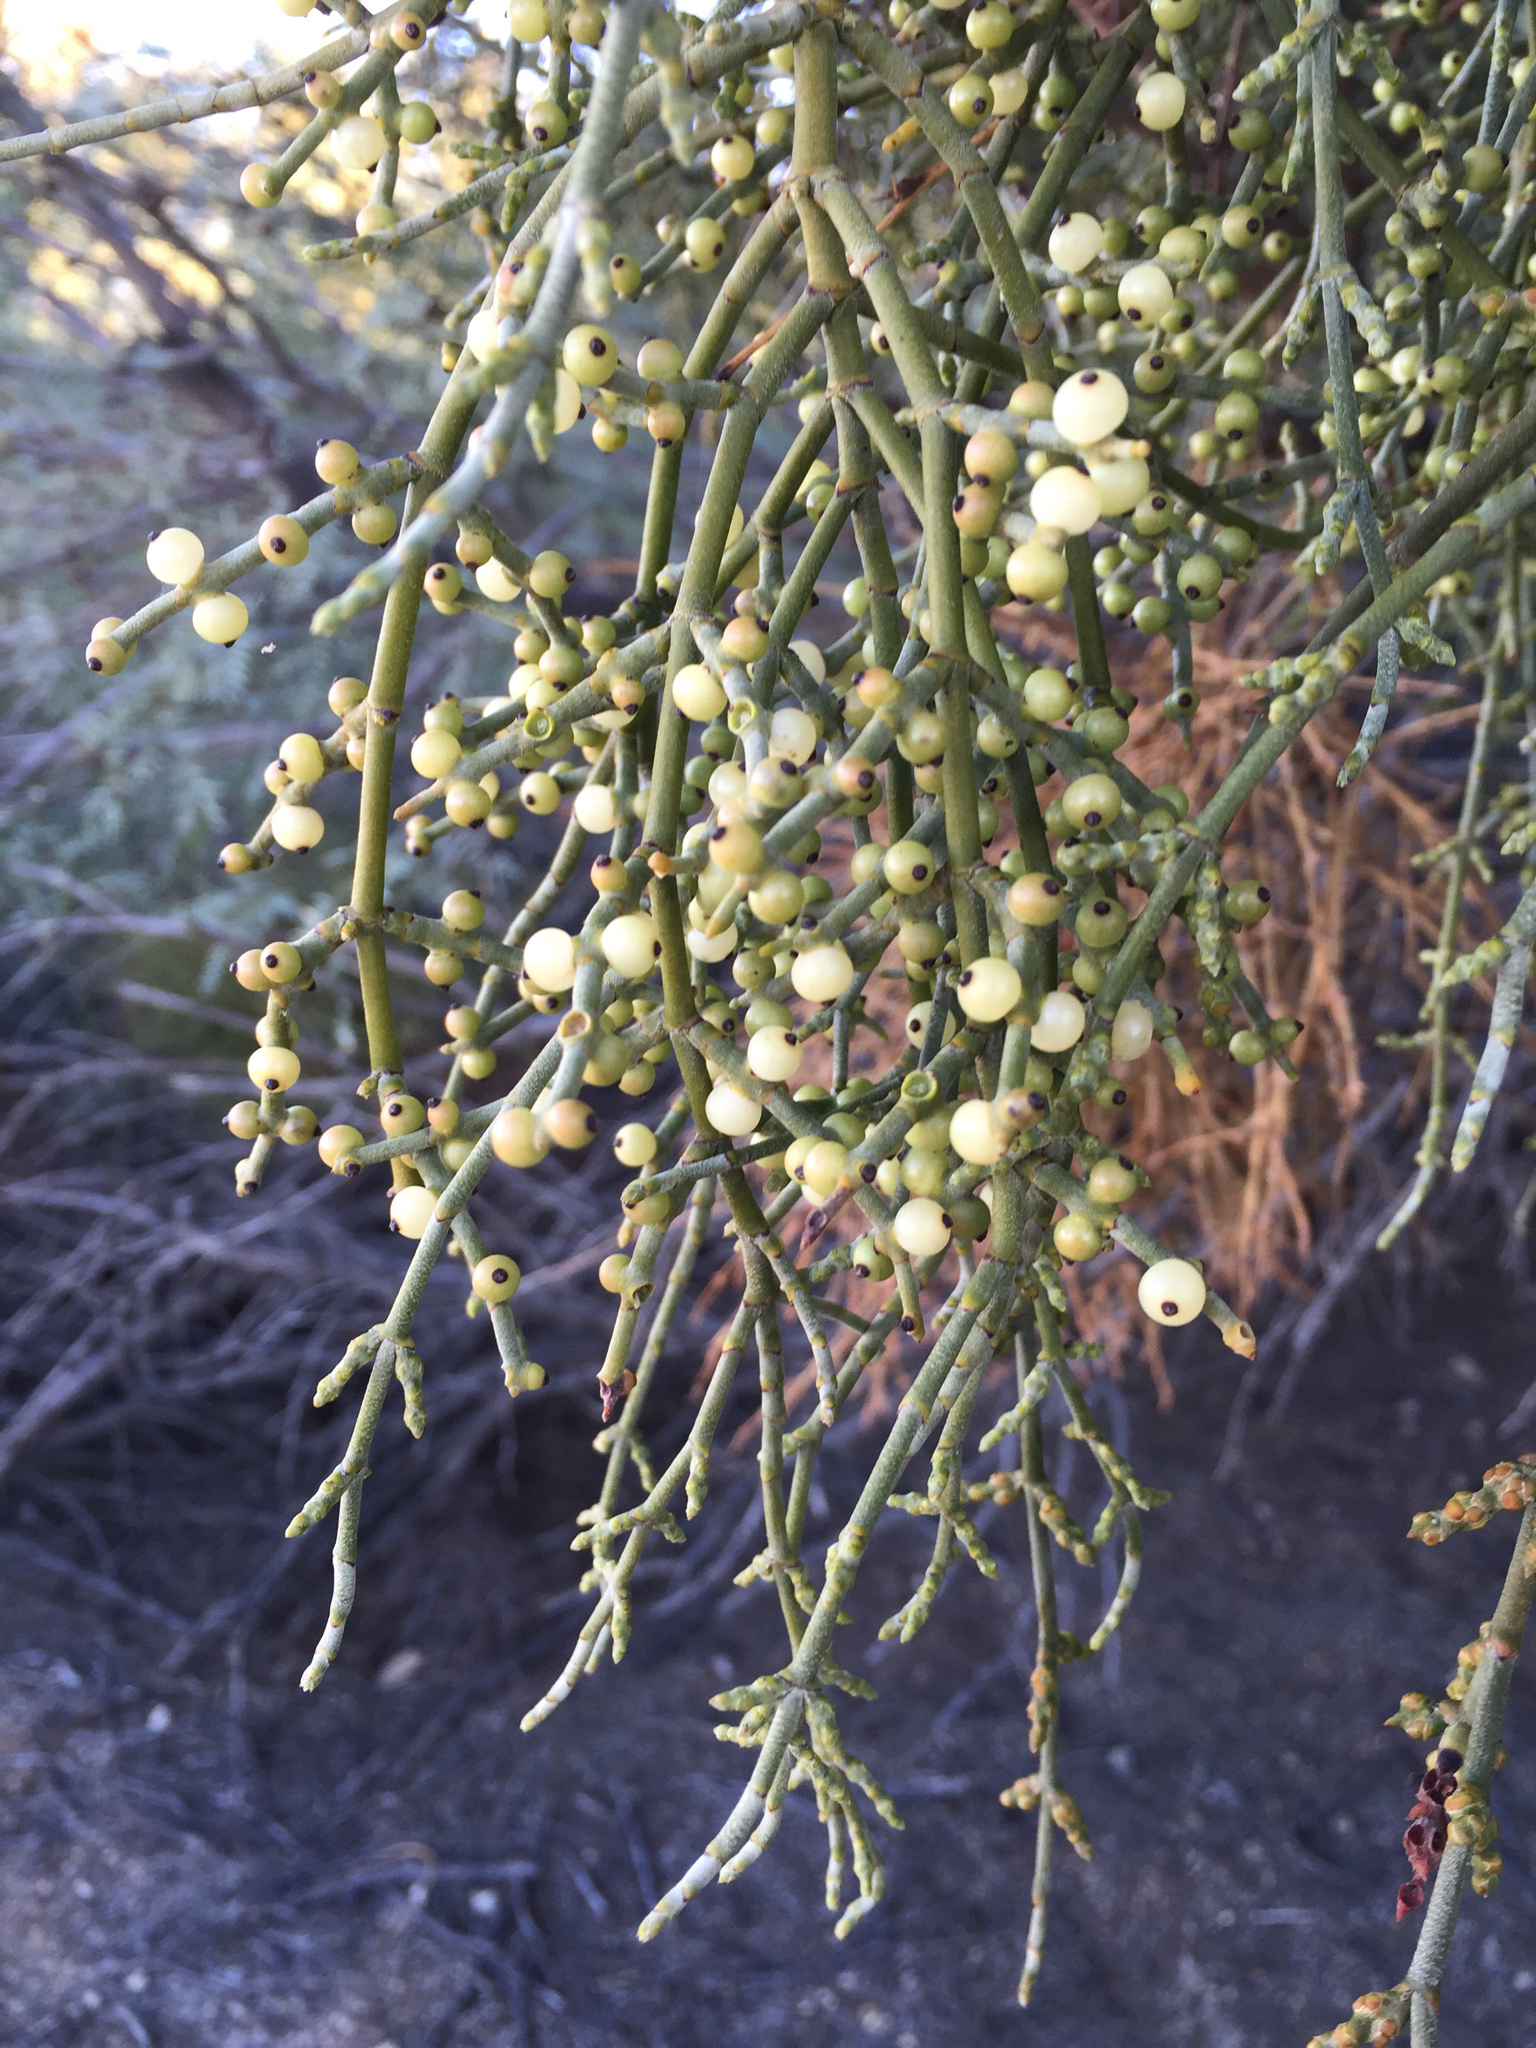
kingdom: Plantae
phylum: Tracheophyta
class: Magnoliopsida
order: Santalales
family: Viscaceae
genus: Phoradendron
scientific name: Phoradendron californicum
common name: Acacia mistletoe
